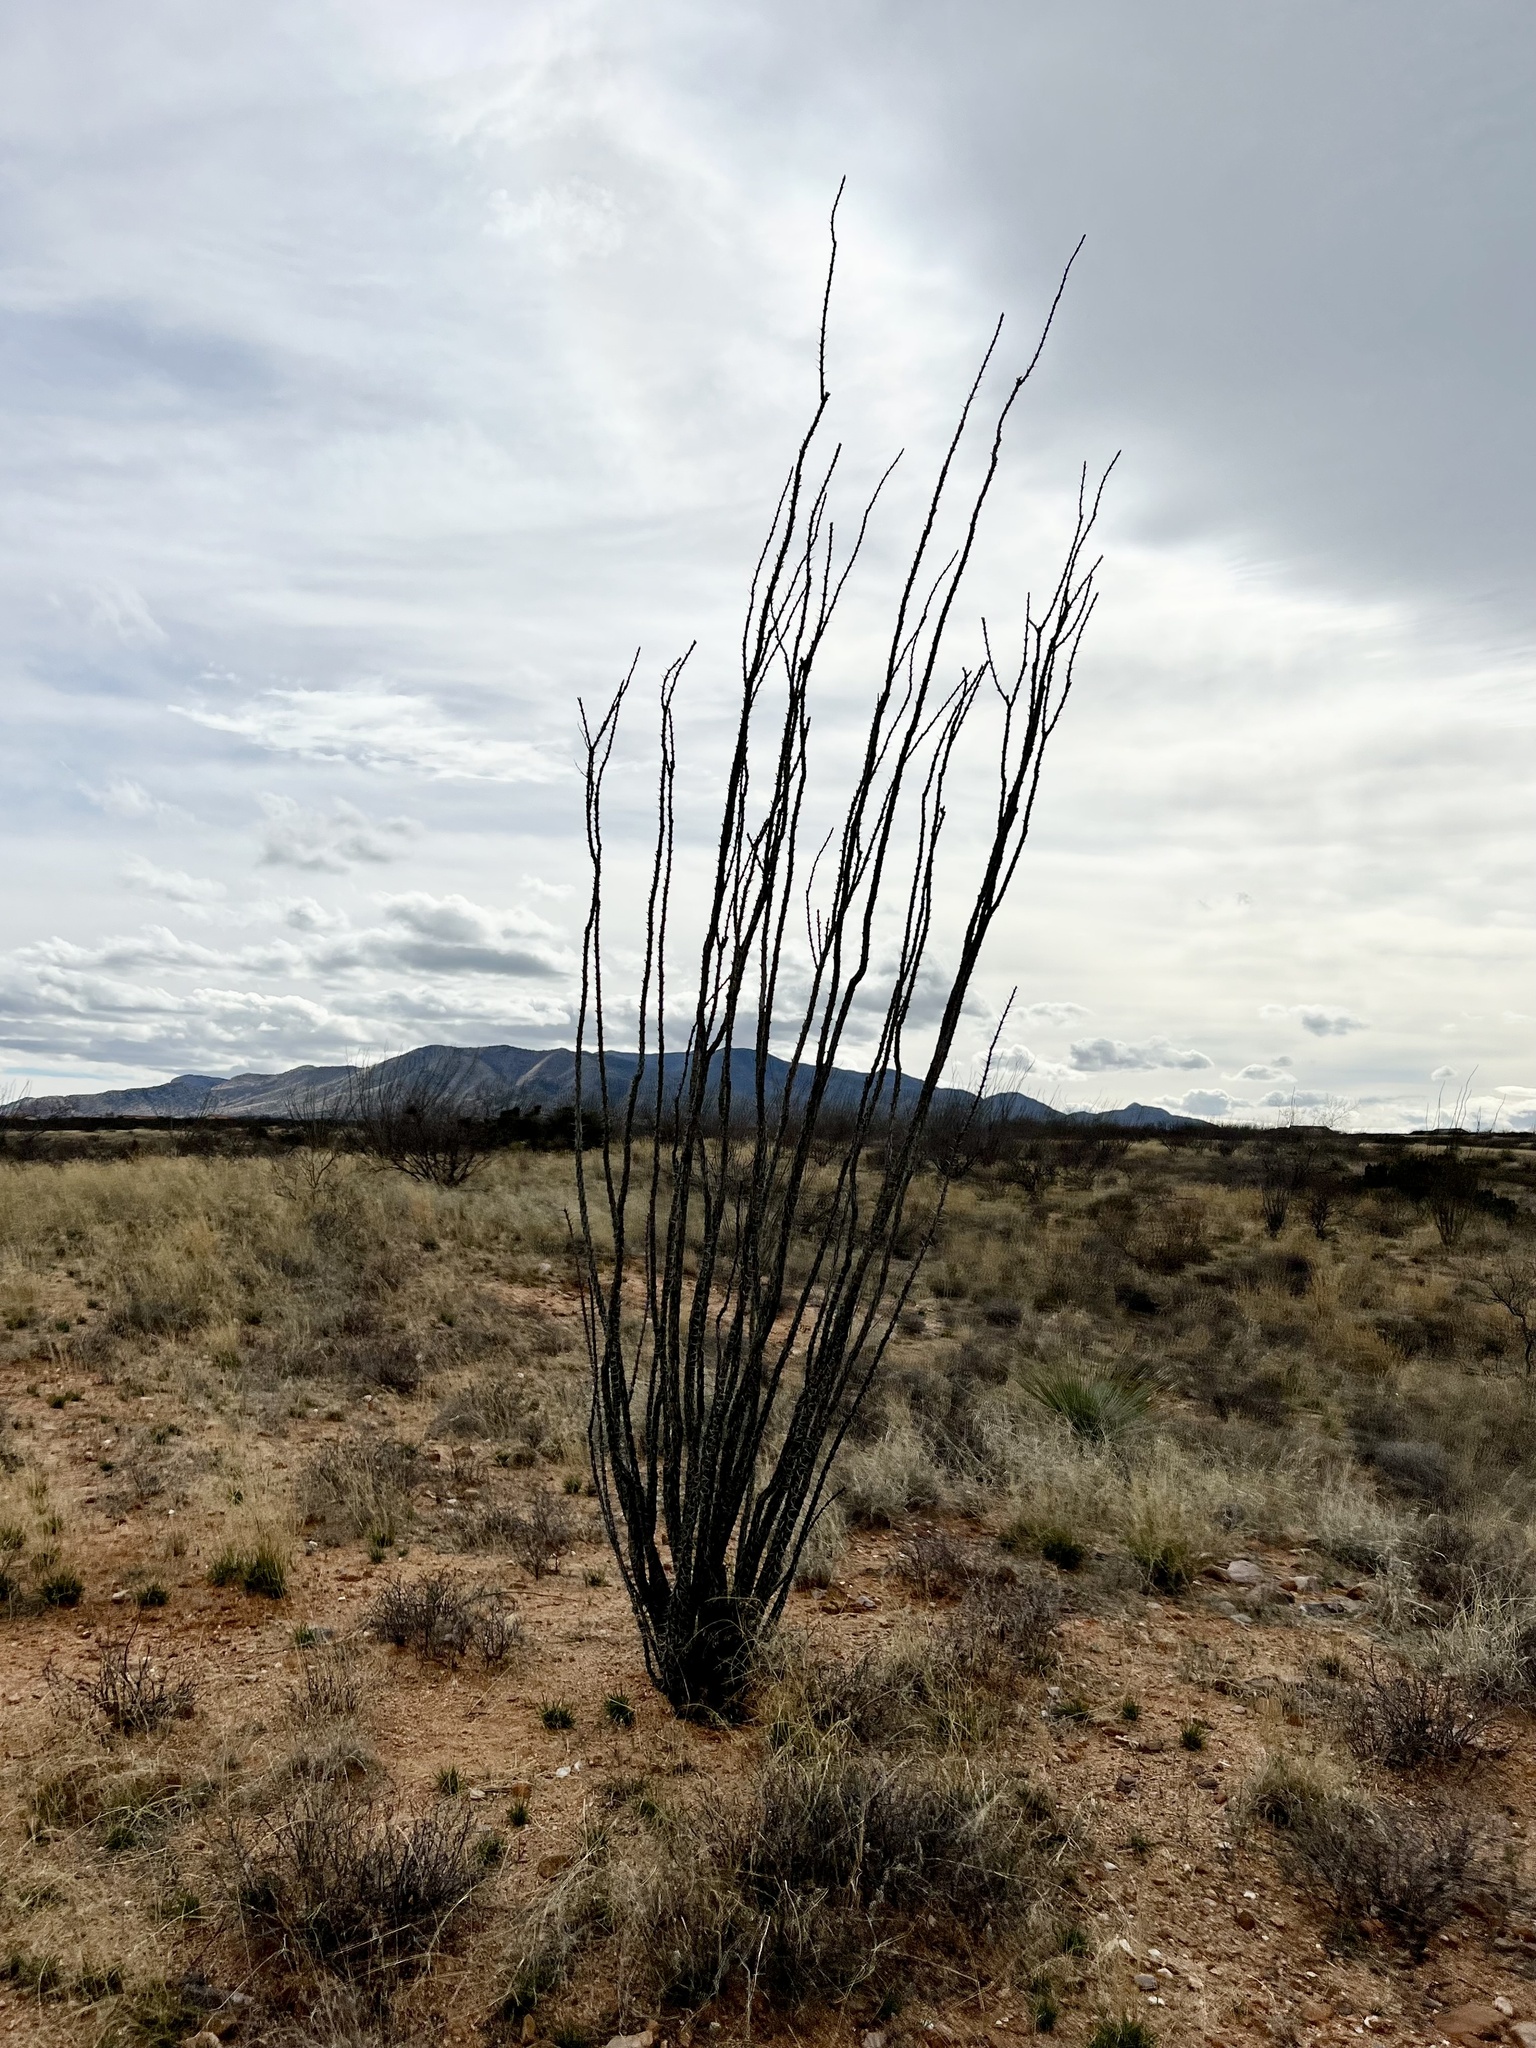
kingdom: Plantae
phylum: Tracheophyta
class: Magnoliopsida
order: Ericales
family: Fouquieriaceae
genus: Fouquieria
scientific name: Fouquieria splendens
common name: Vine-cactus
